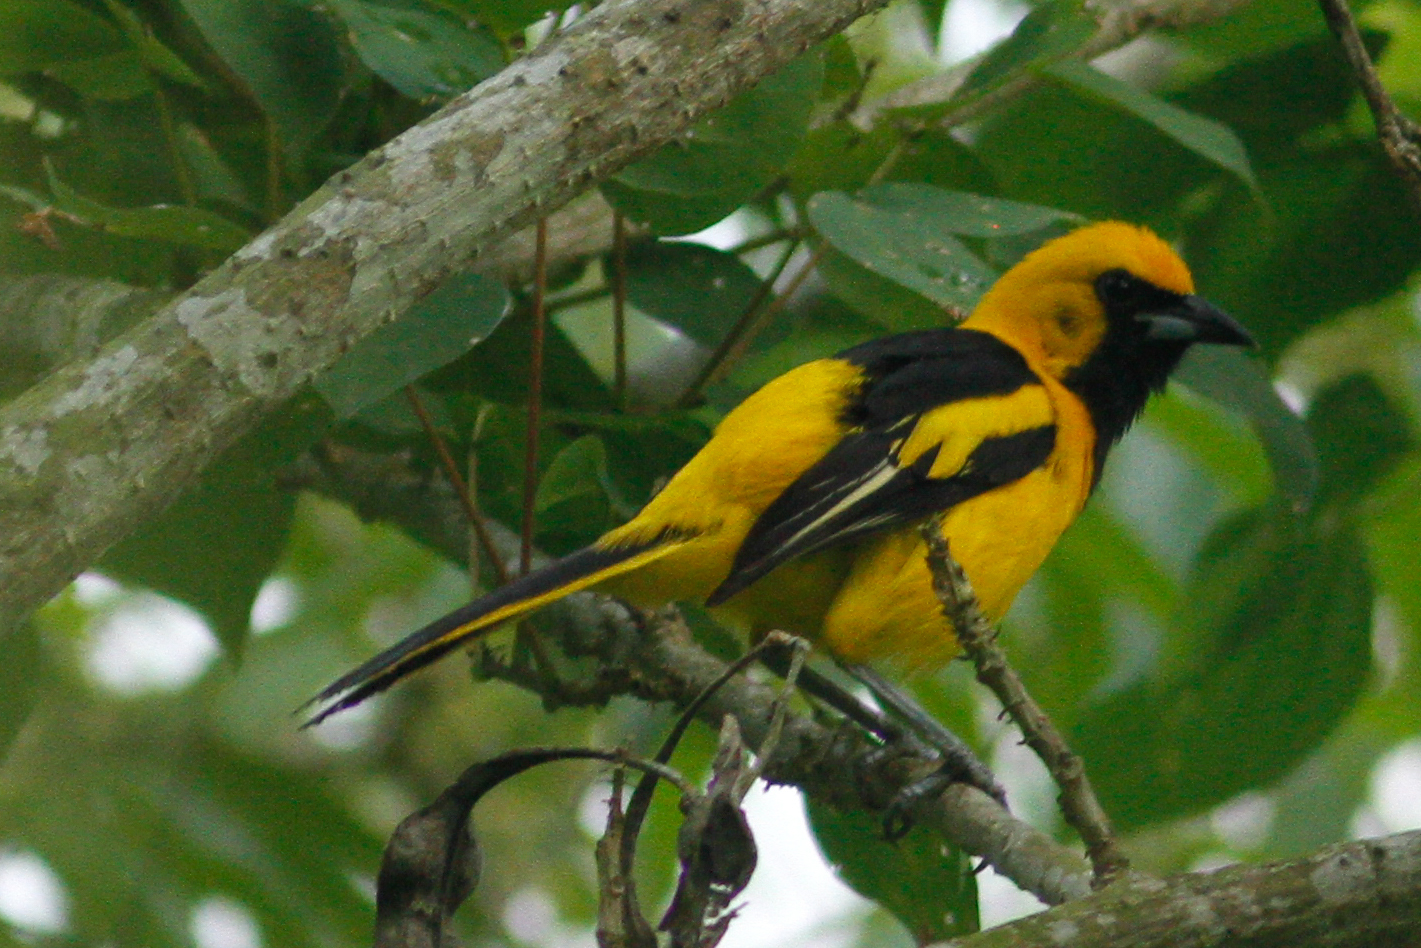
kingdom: Animalia
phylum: Chordata
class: Aves
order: Passeriformes
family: Icteridae
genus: Icterus
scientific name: Icterus mesomelas
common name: Yellow-tailed oriole
